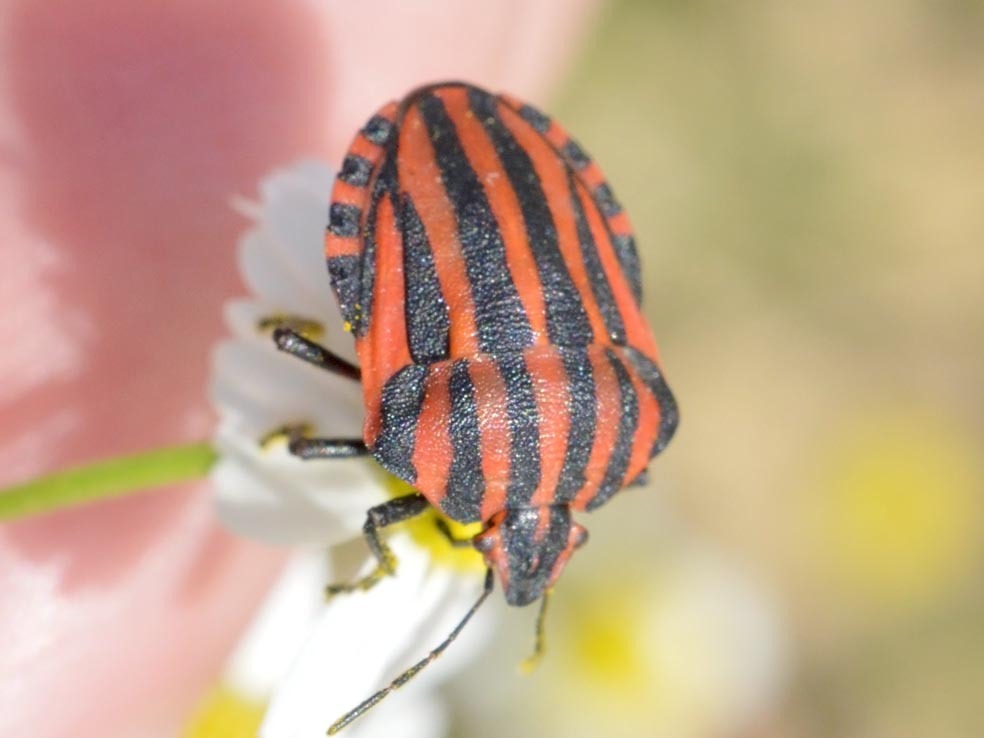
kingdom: Animalia
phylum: Arthropoda
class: Insecta
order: Hemiptera
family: Pentatomidae
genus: Graphosoma
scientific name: Graphosoma italicum
